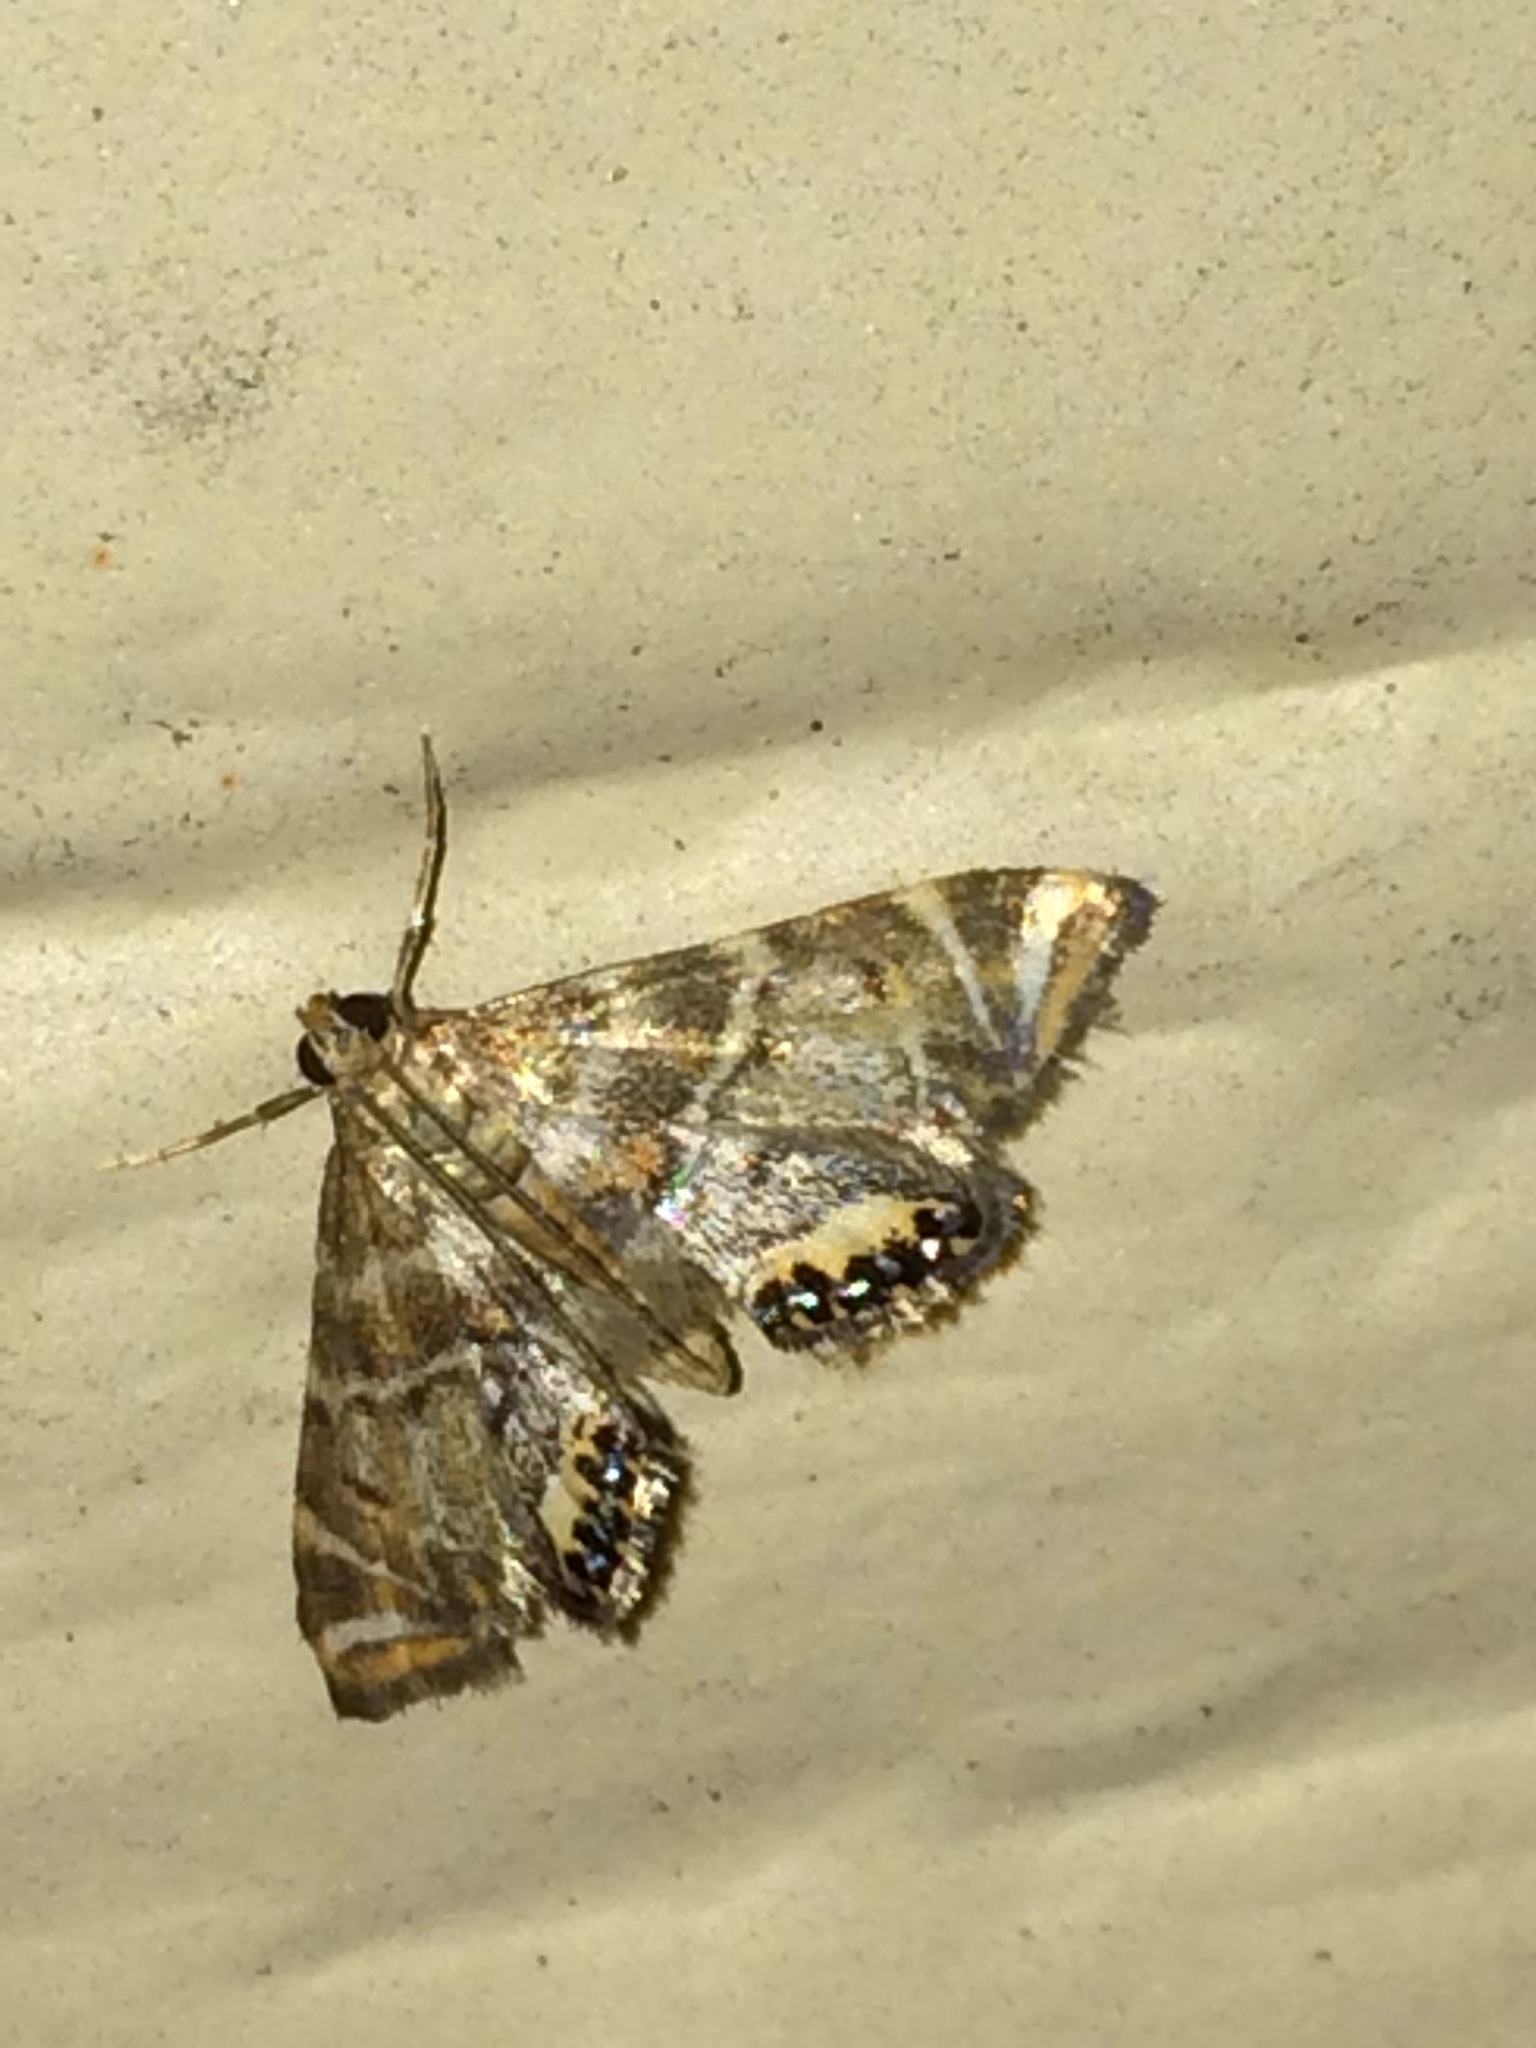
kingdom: Animalia
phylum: Arthropoda
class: Insecta
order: Lepidoptera
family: Crambidae
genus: Petrophila
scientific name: Petrophila confusalis
